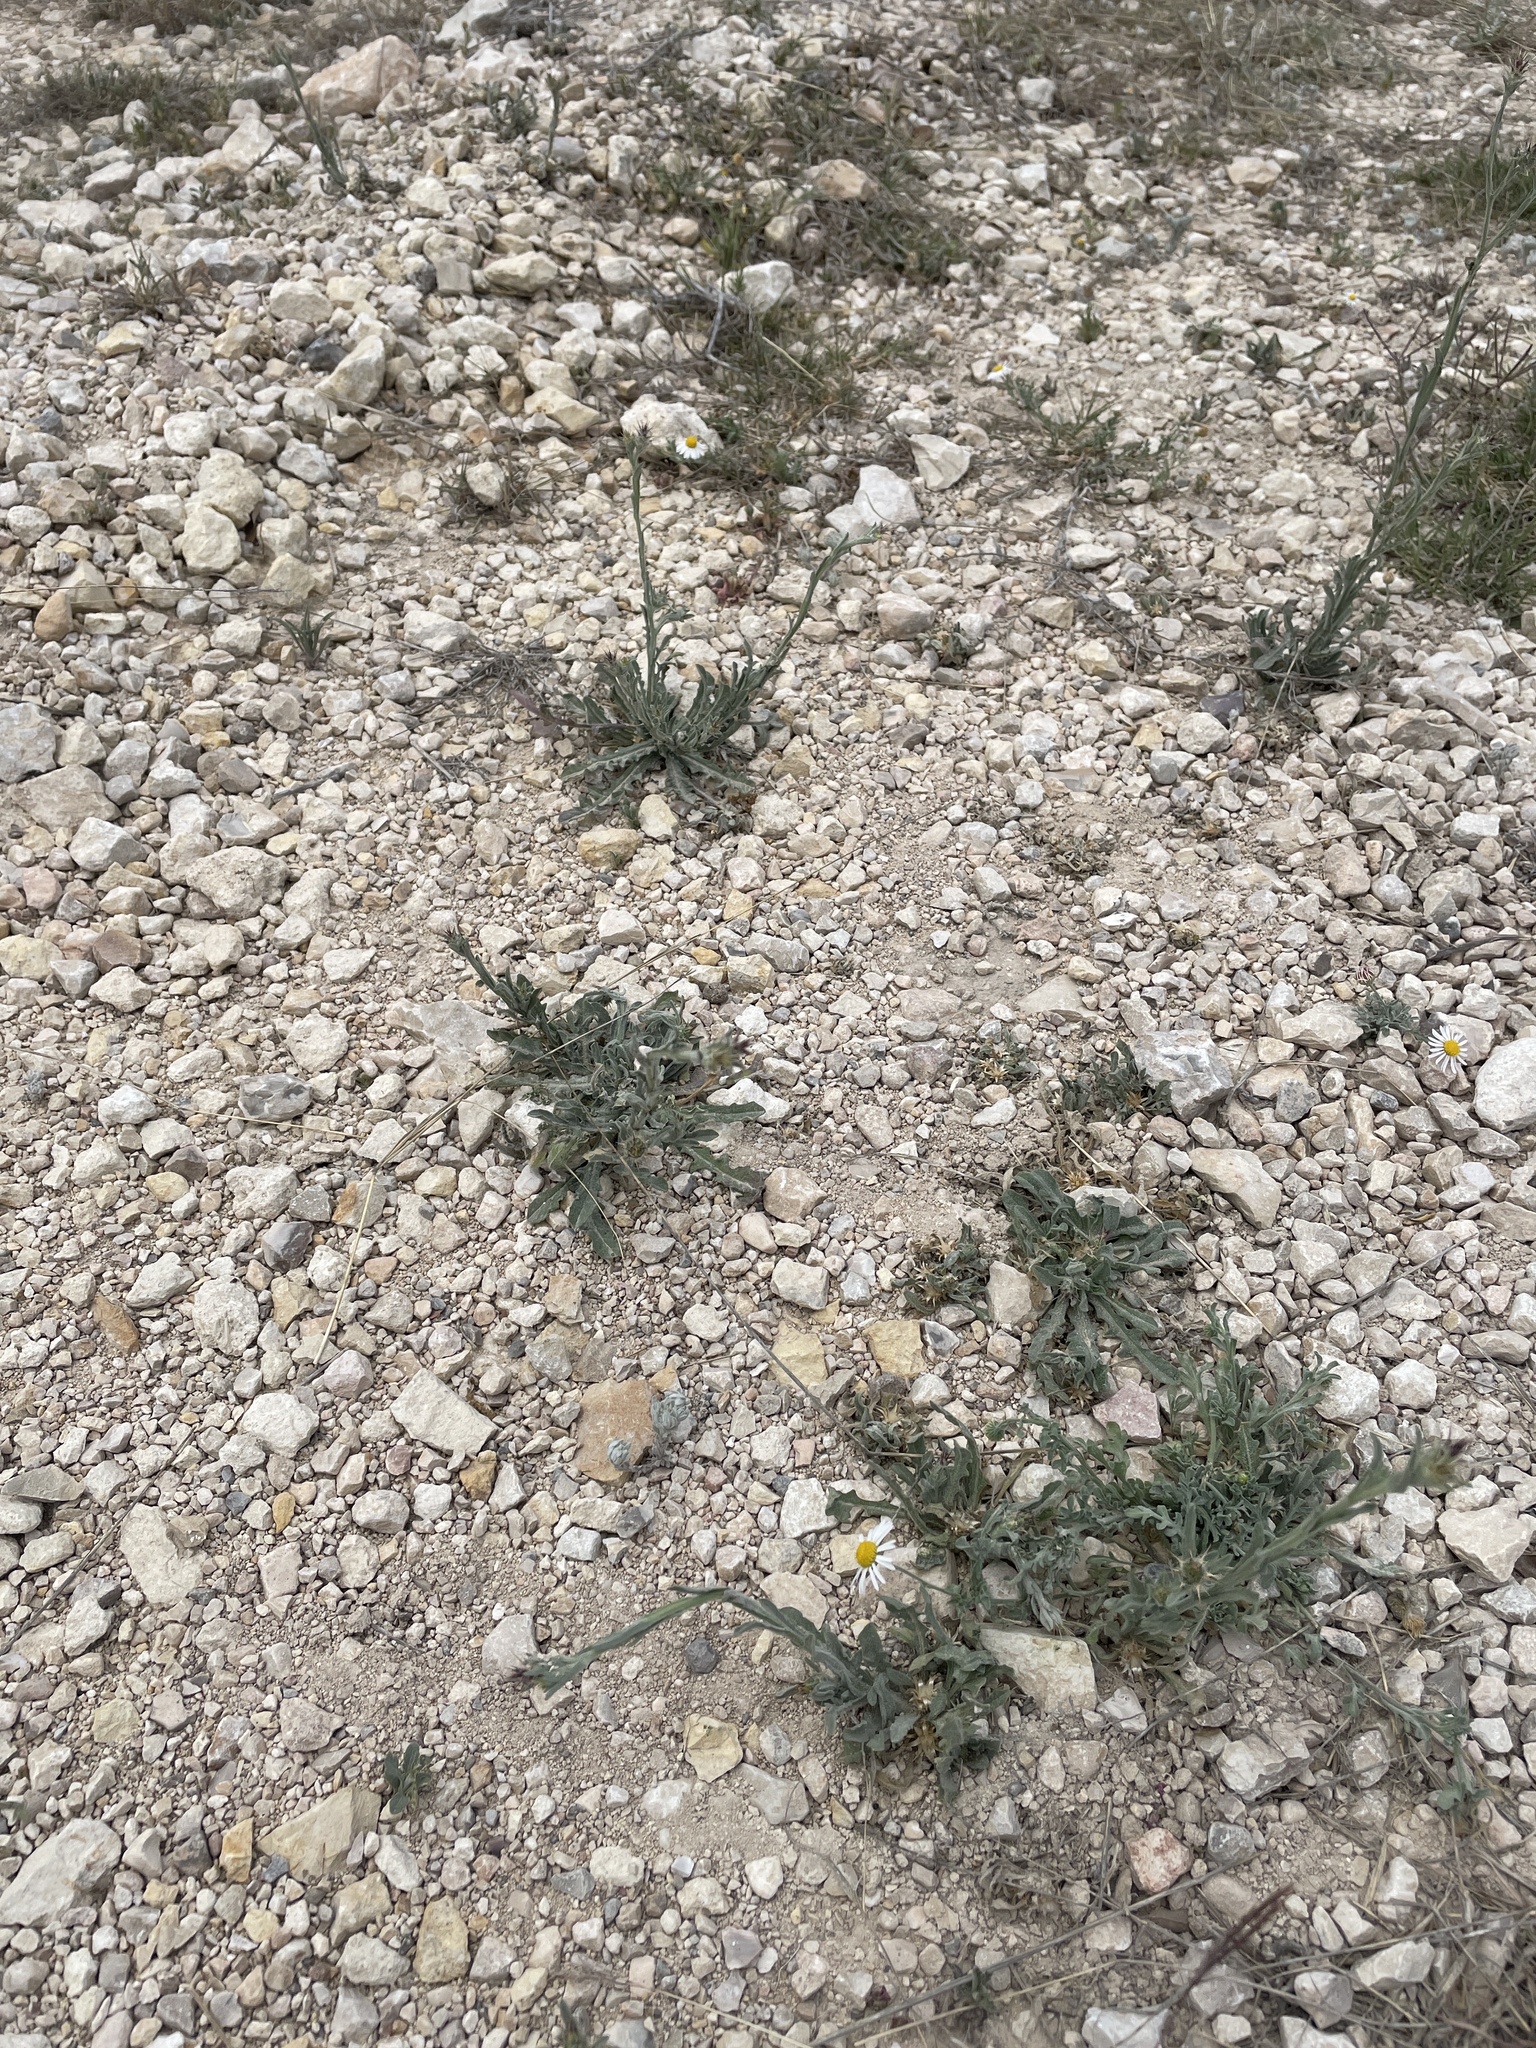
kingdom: Plantae
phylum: Tracheophyta
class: Magnoliopsida
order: Asterales
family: Asteraceae
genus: Centaurea
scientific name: Centaurea melitensis
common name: Maltese star-thistle
